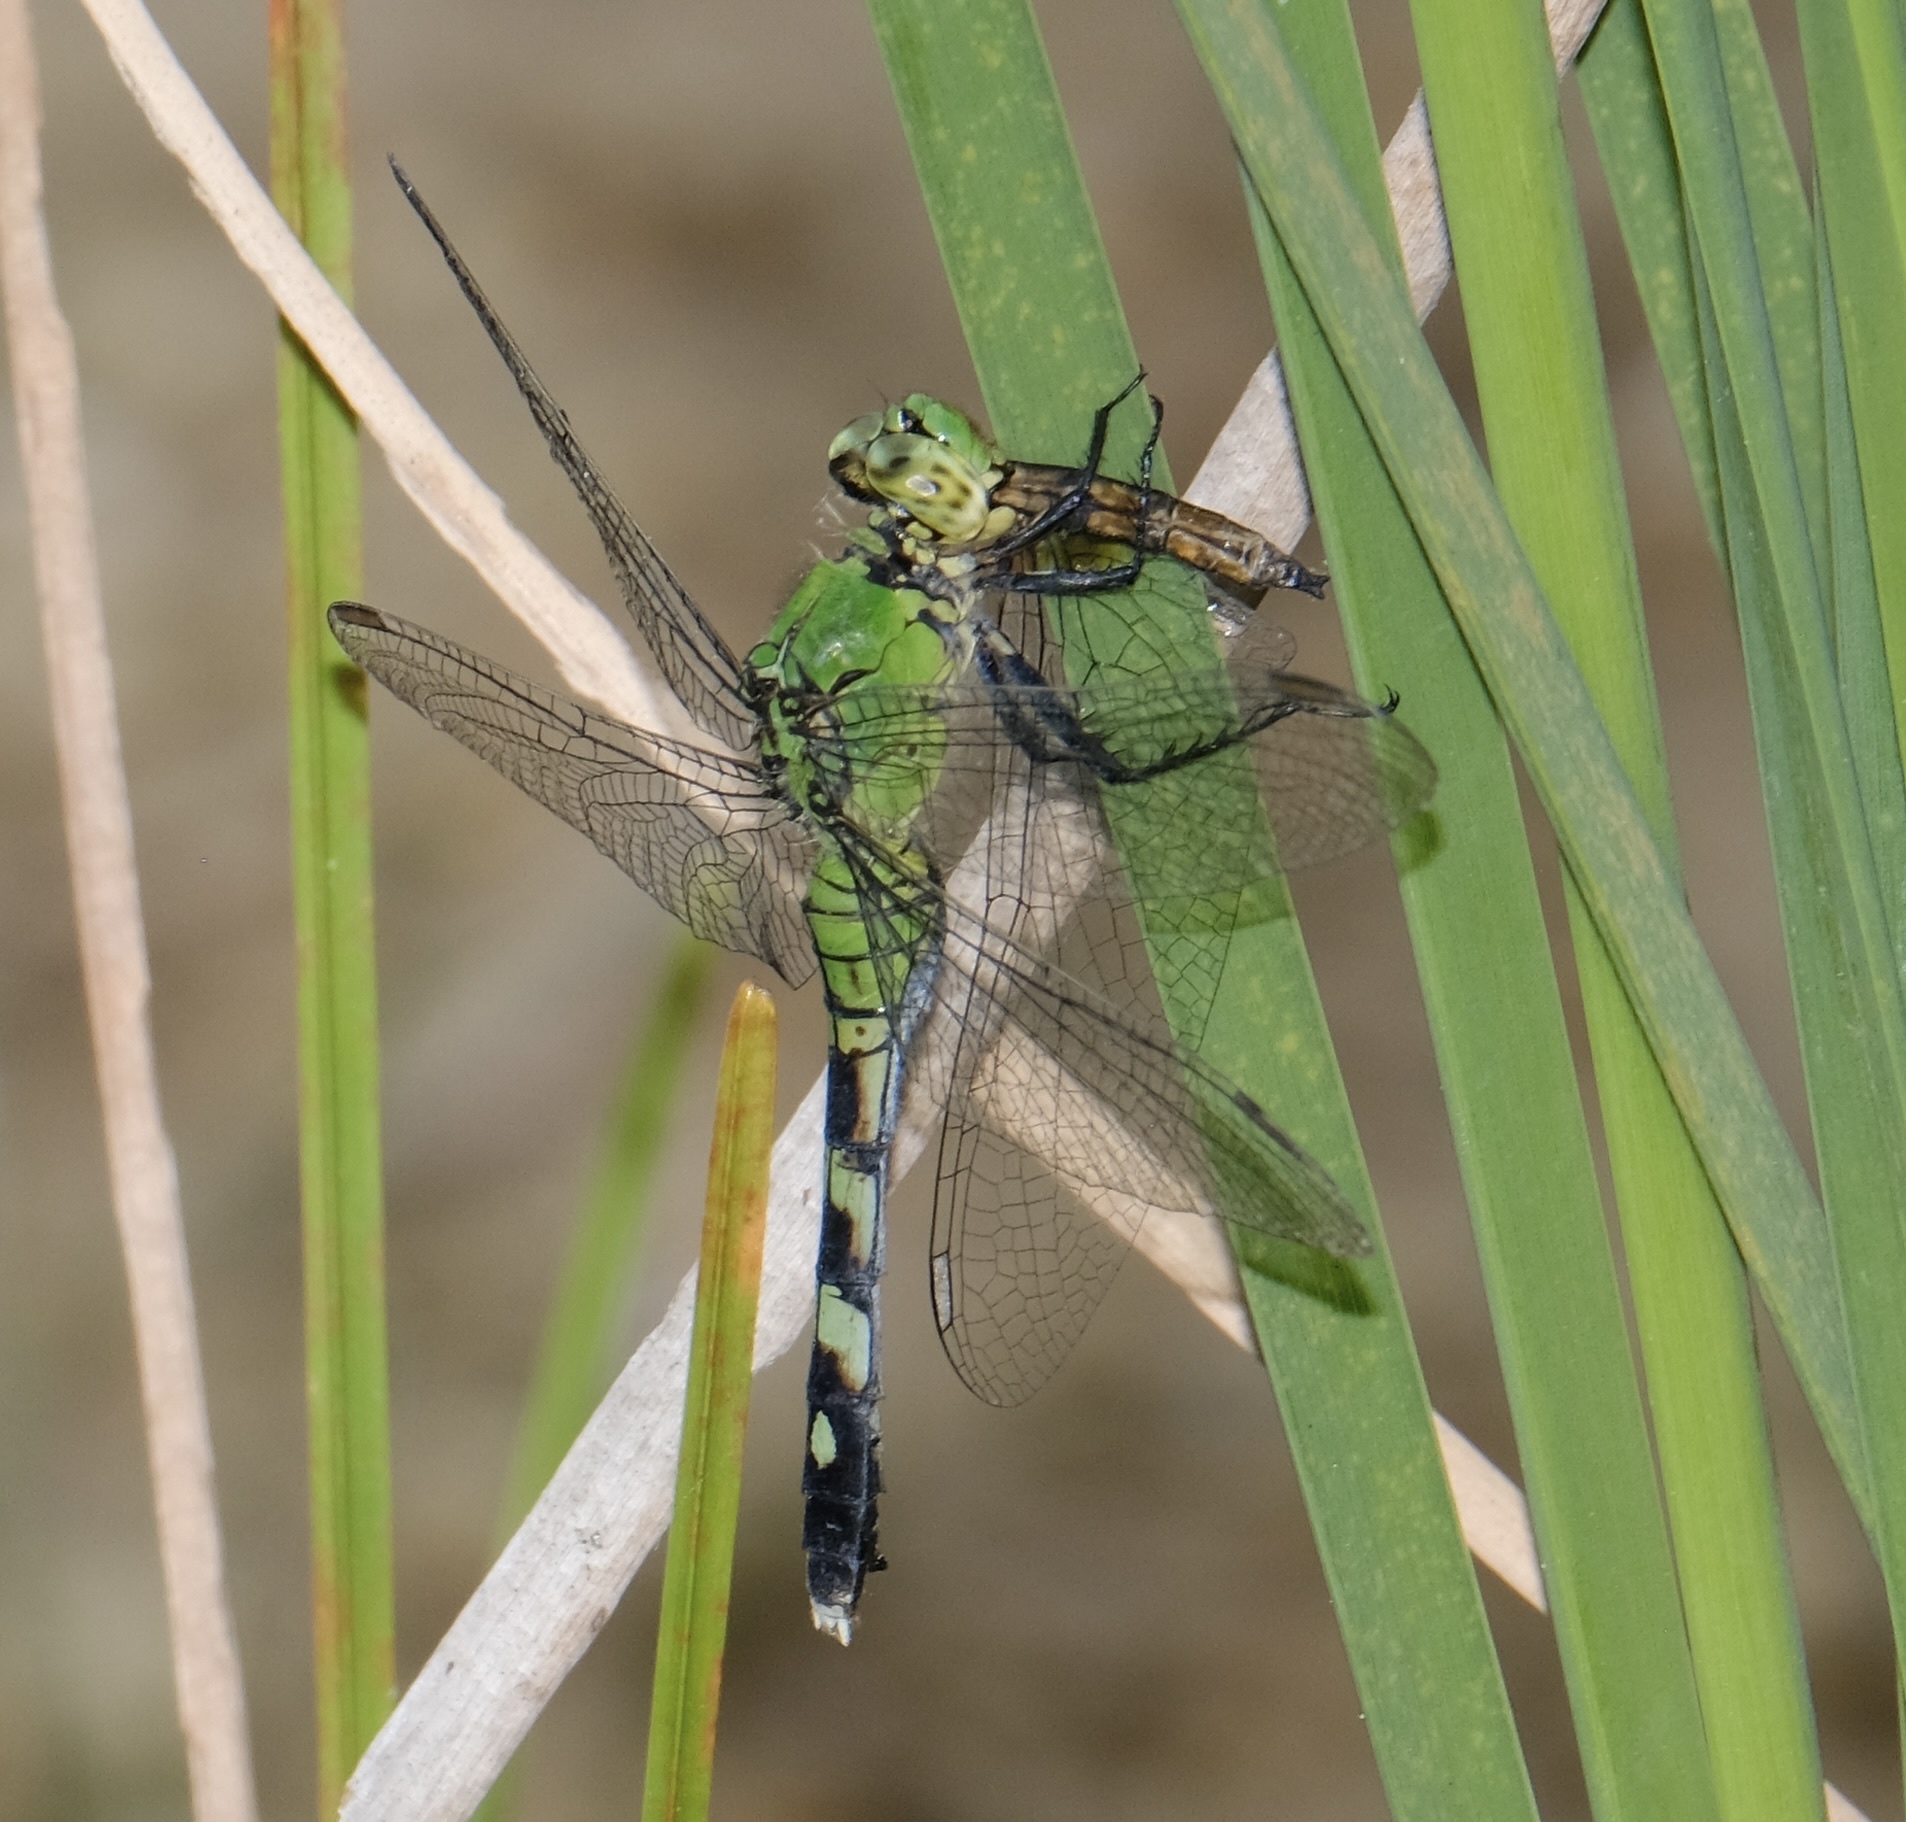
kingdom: Animalia
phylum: Arthropoda
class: Insecta
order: Odonata
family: Libellulidae
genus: Erythemis
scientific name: Erythemis simplicicollis
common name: Eastern pondhawk
